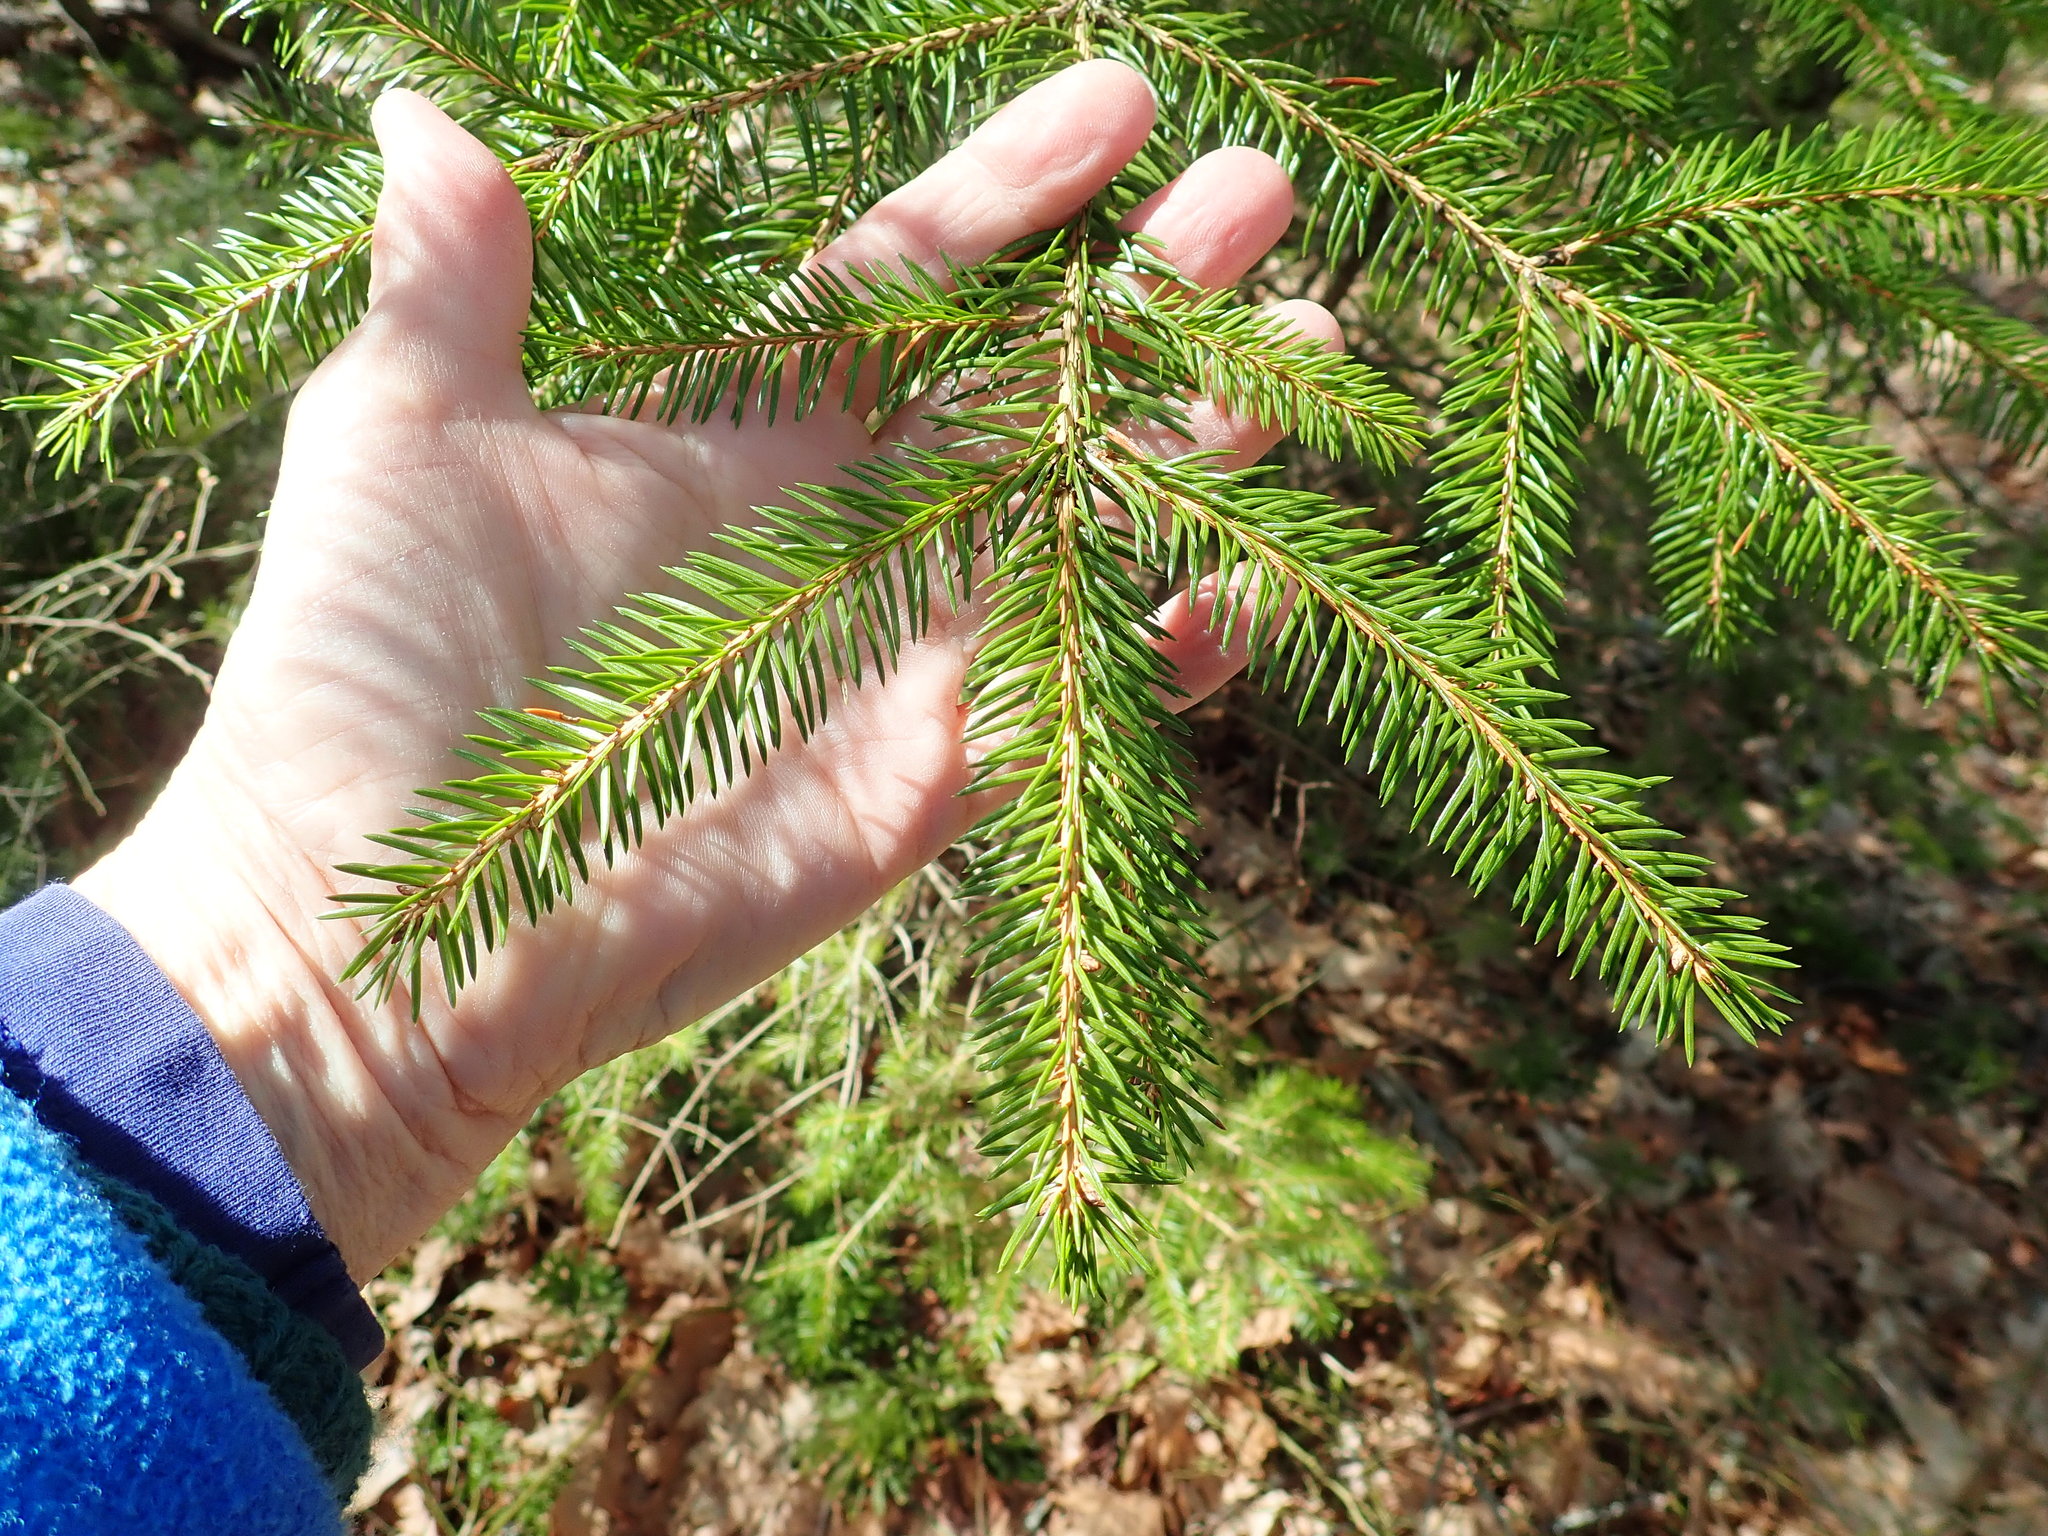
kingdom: Plantae
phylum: Tracheophyta
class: Pinopsida
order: Pinales
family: Pinaceae
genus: Picea
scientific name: Picea abies
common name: Norway spruce
